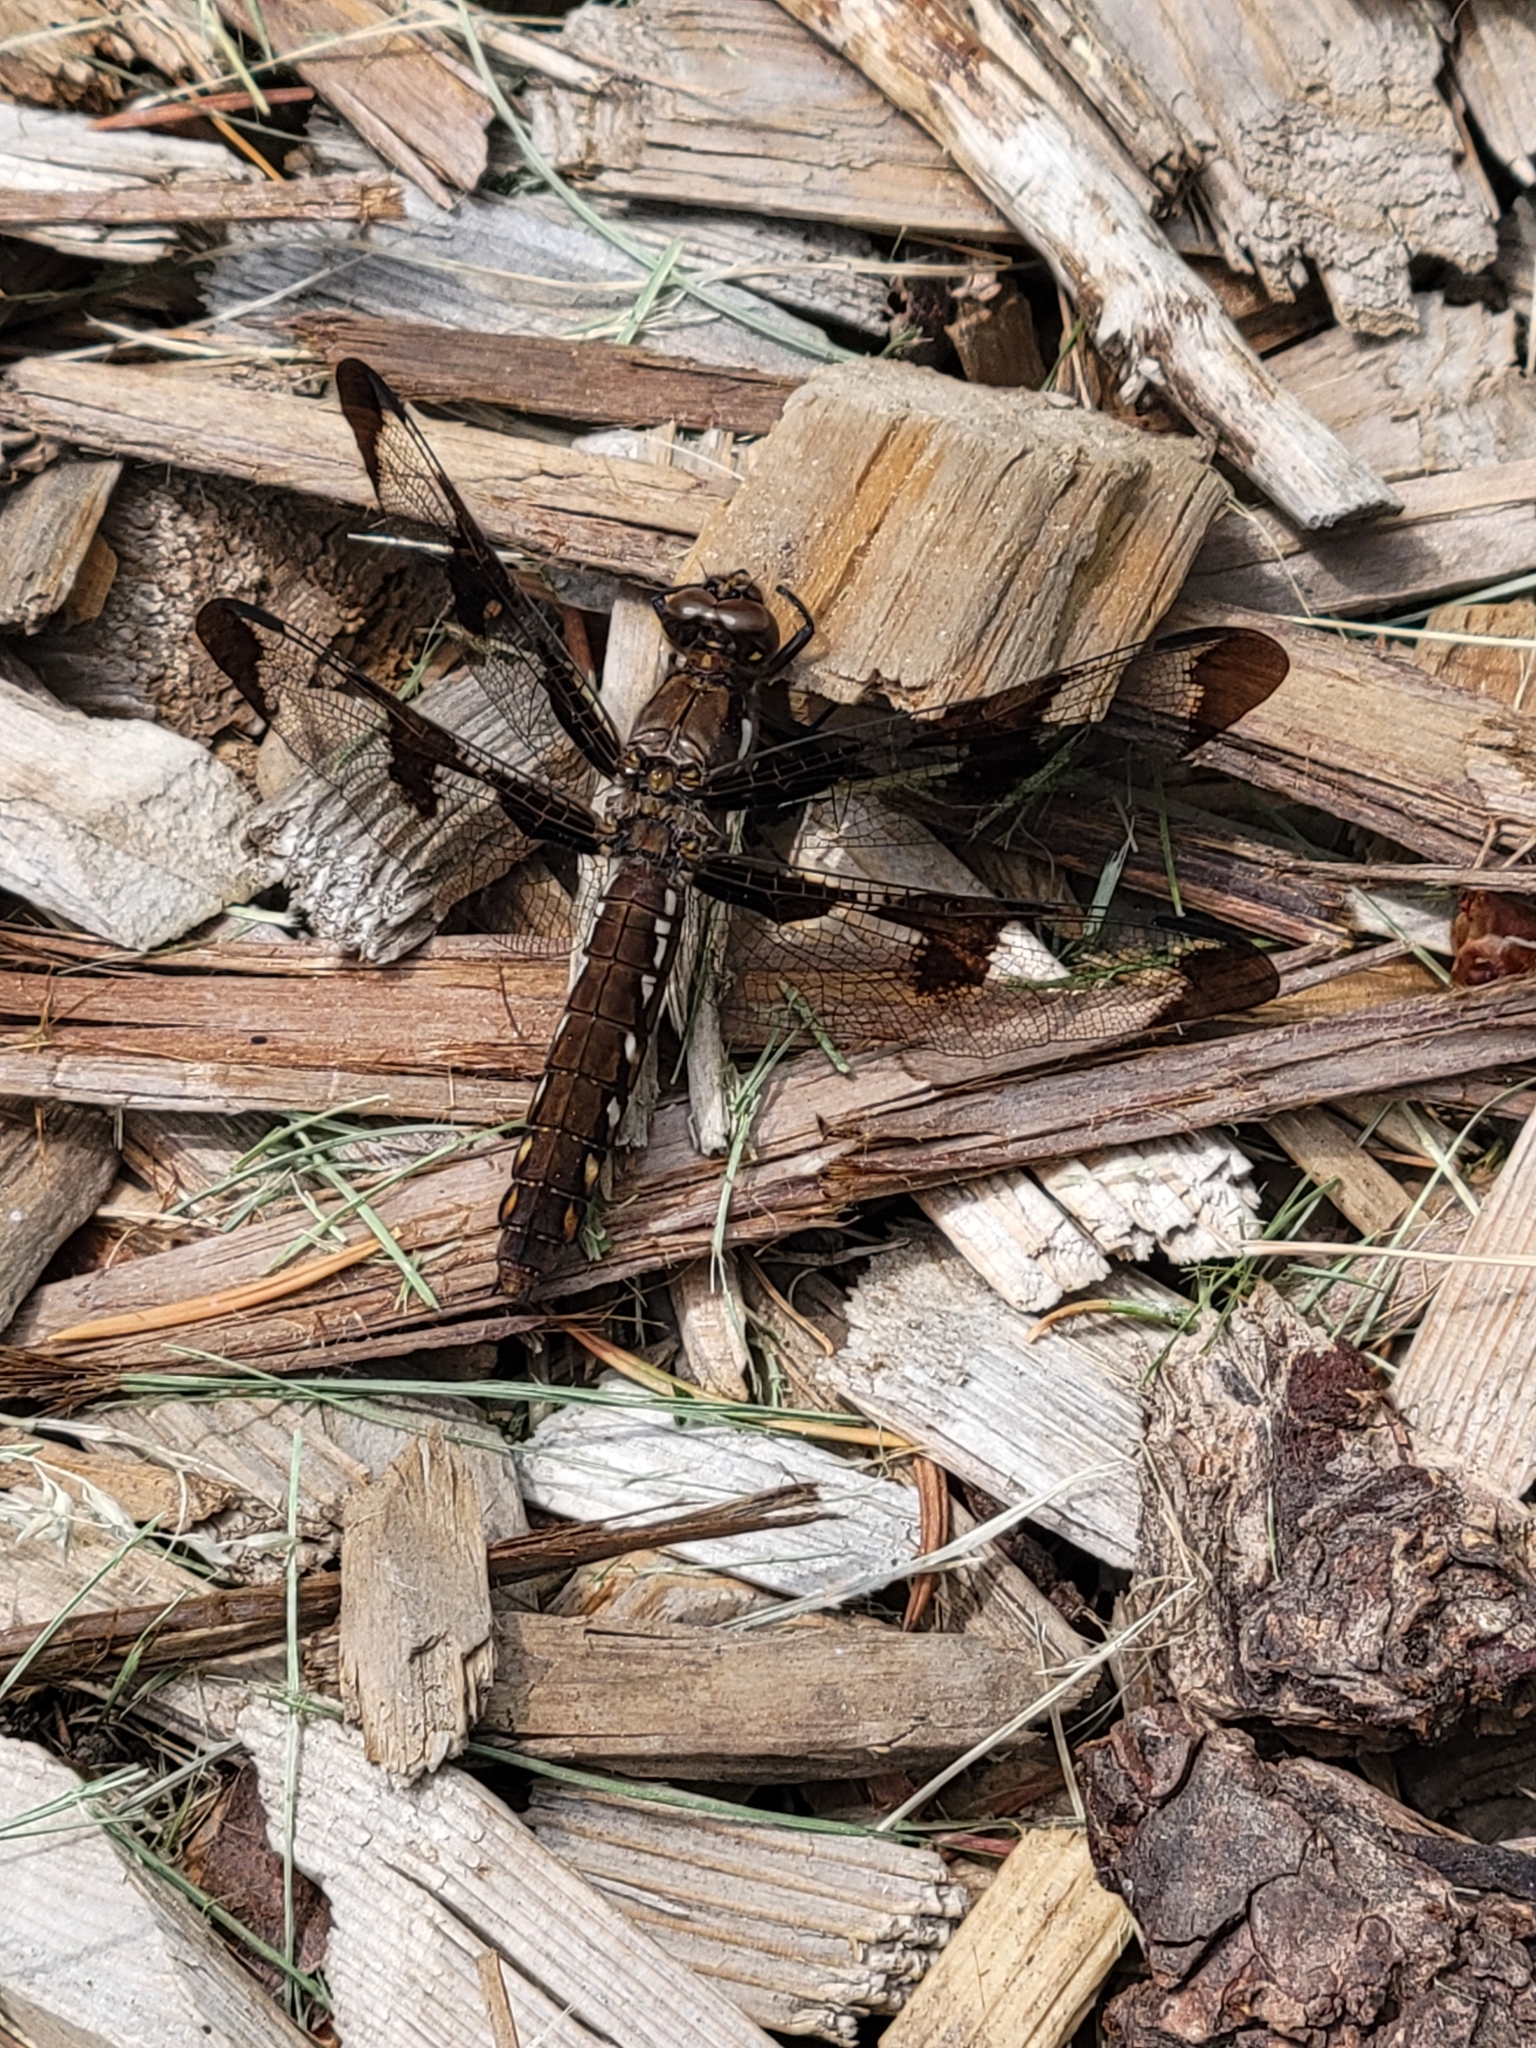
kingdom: Animalia
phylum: Arthropoda
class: Insecta
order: Odonata
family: Libellulidae
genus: Plathemis
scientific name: Plathemis lydia
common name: Common whitetail
